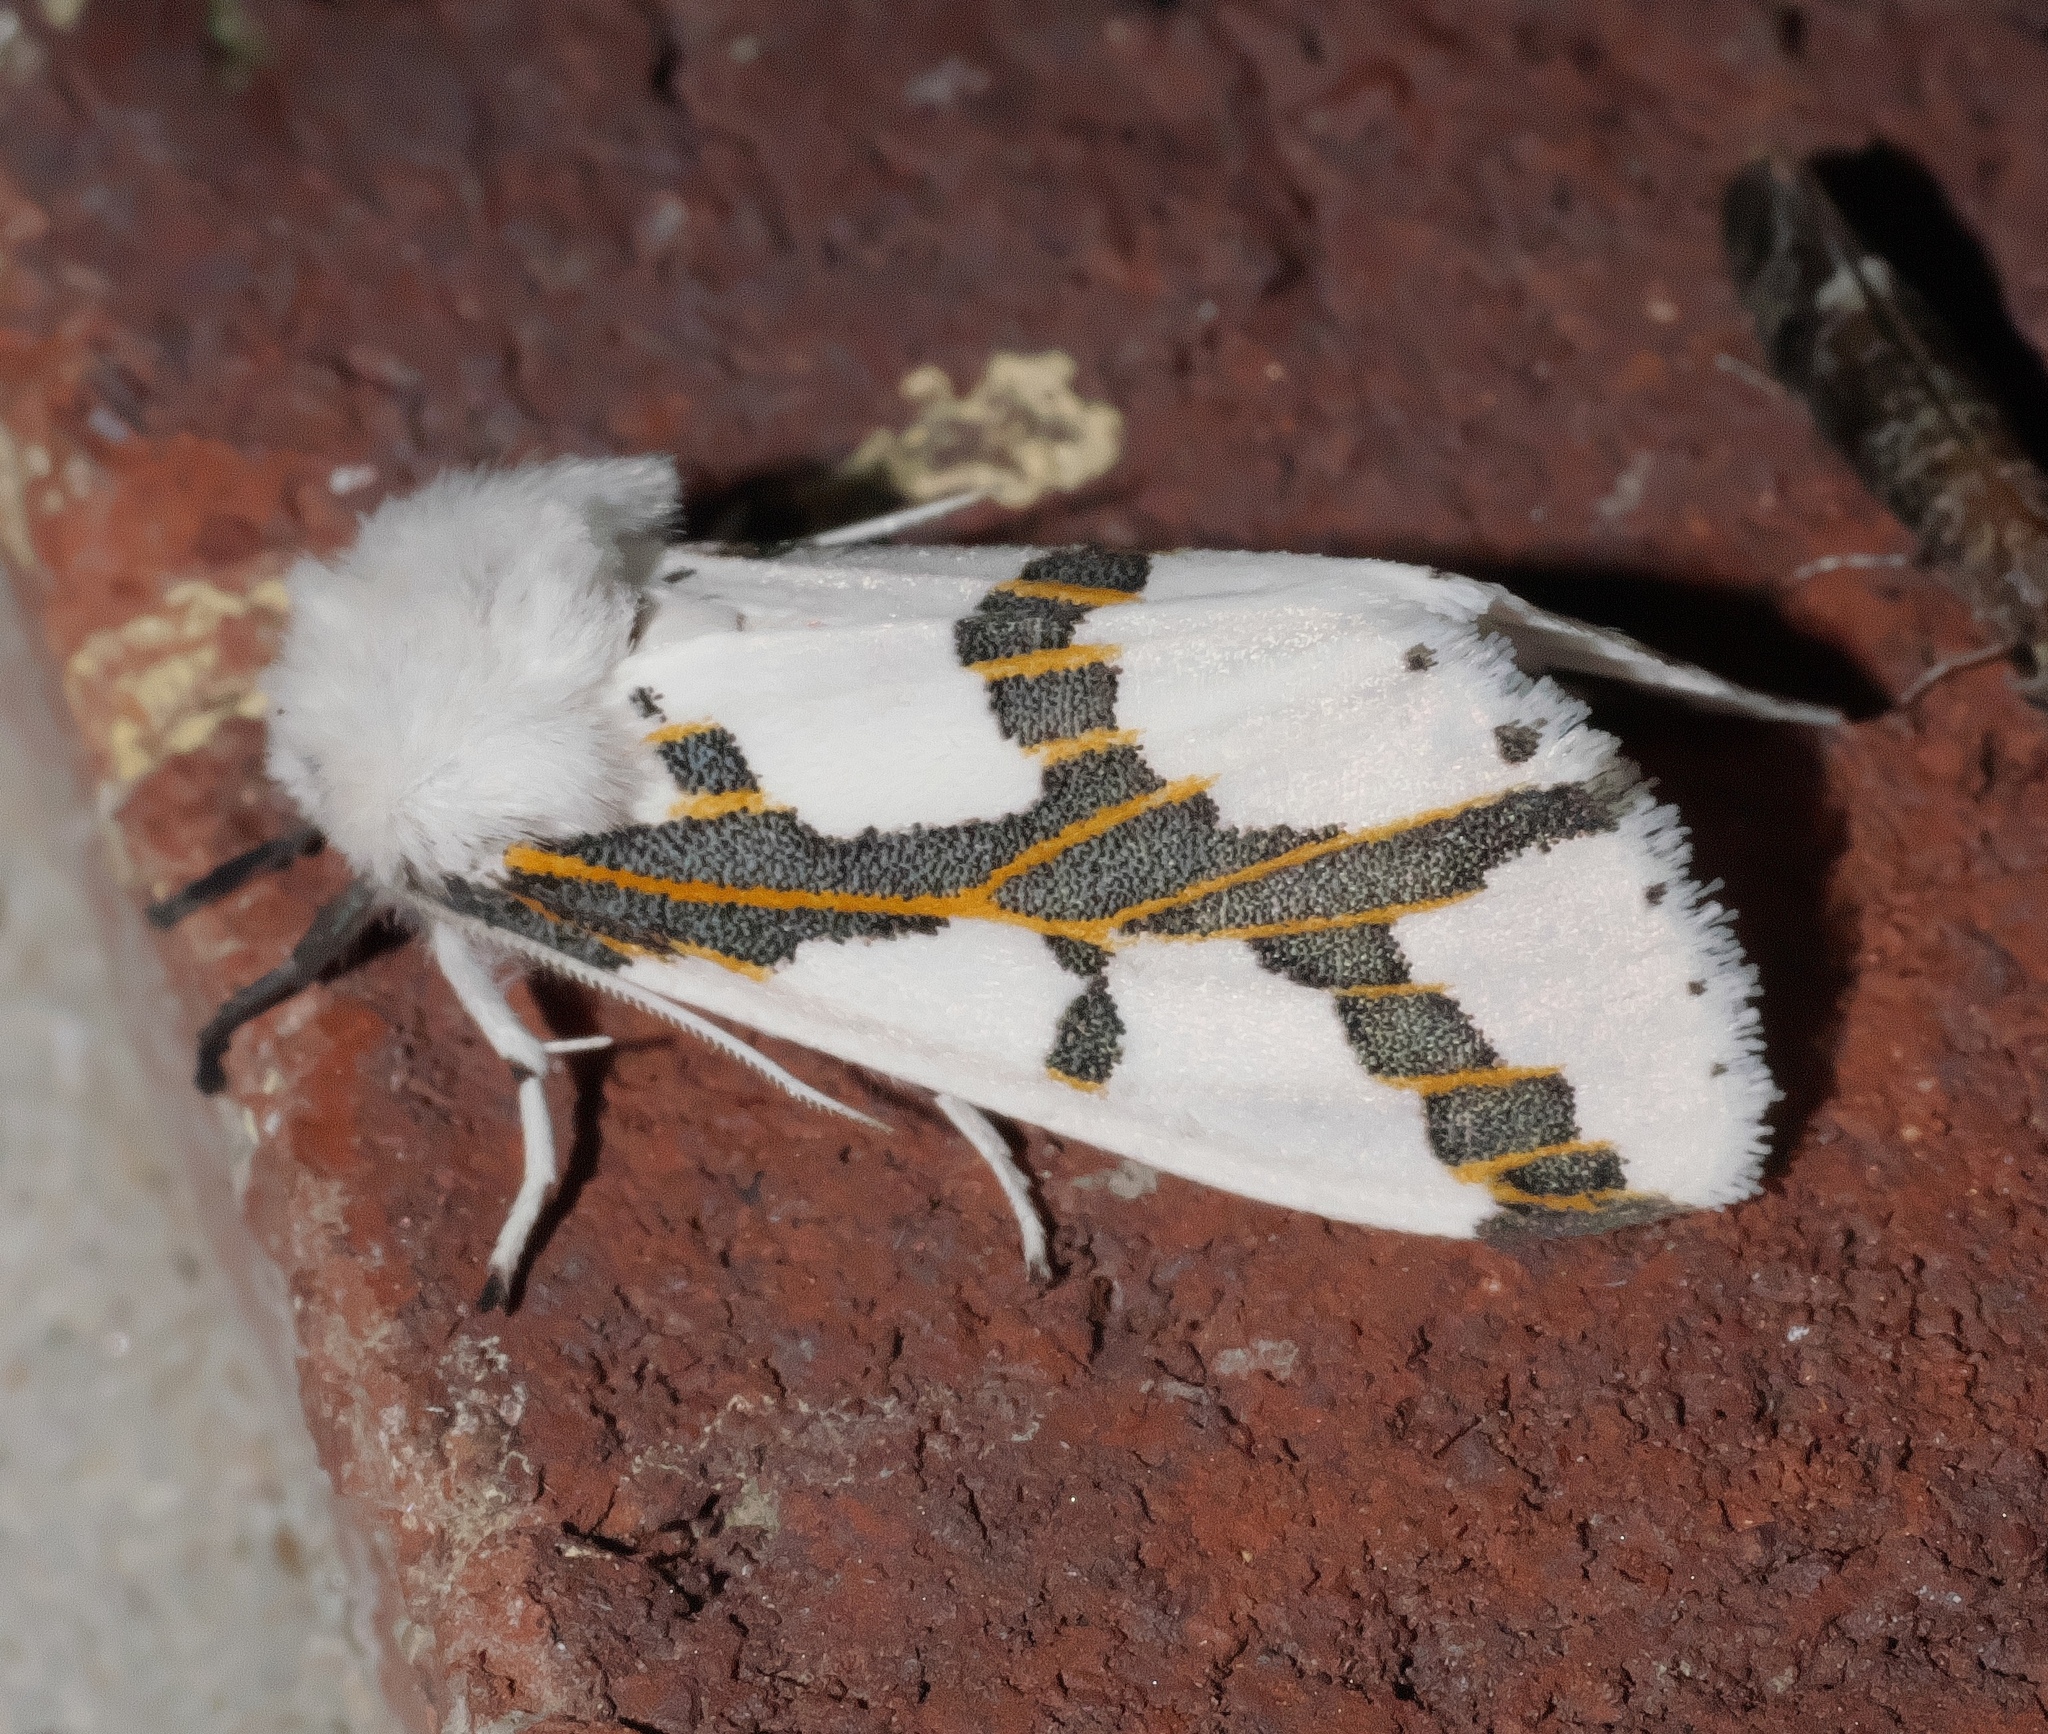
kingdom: Animalia
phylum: Arthropoda
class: Insecta
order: Lepidoptera
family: Erebidae
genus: Euerythra
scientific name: Euerythra phasma
